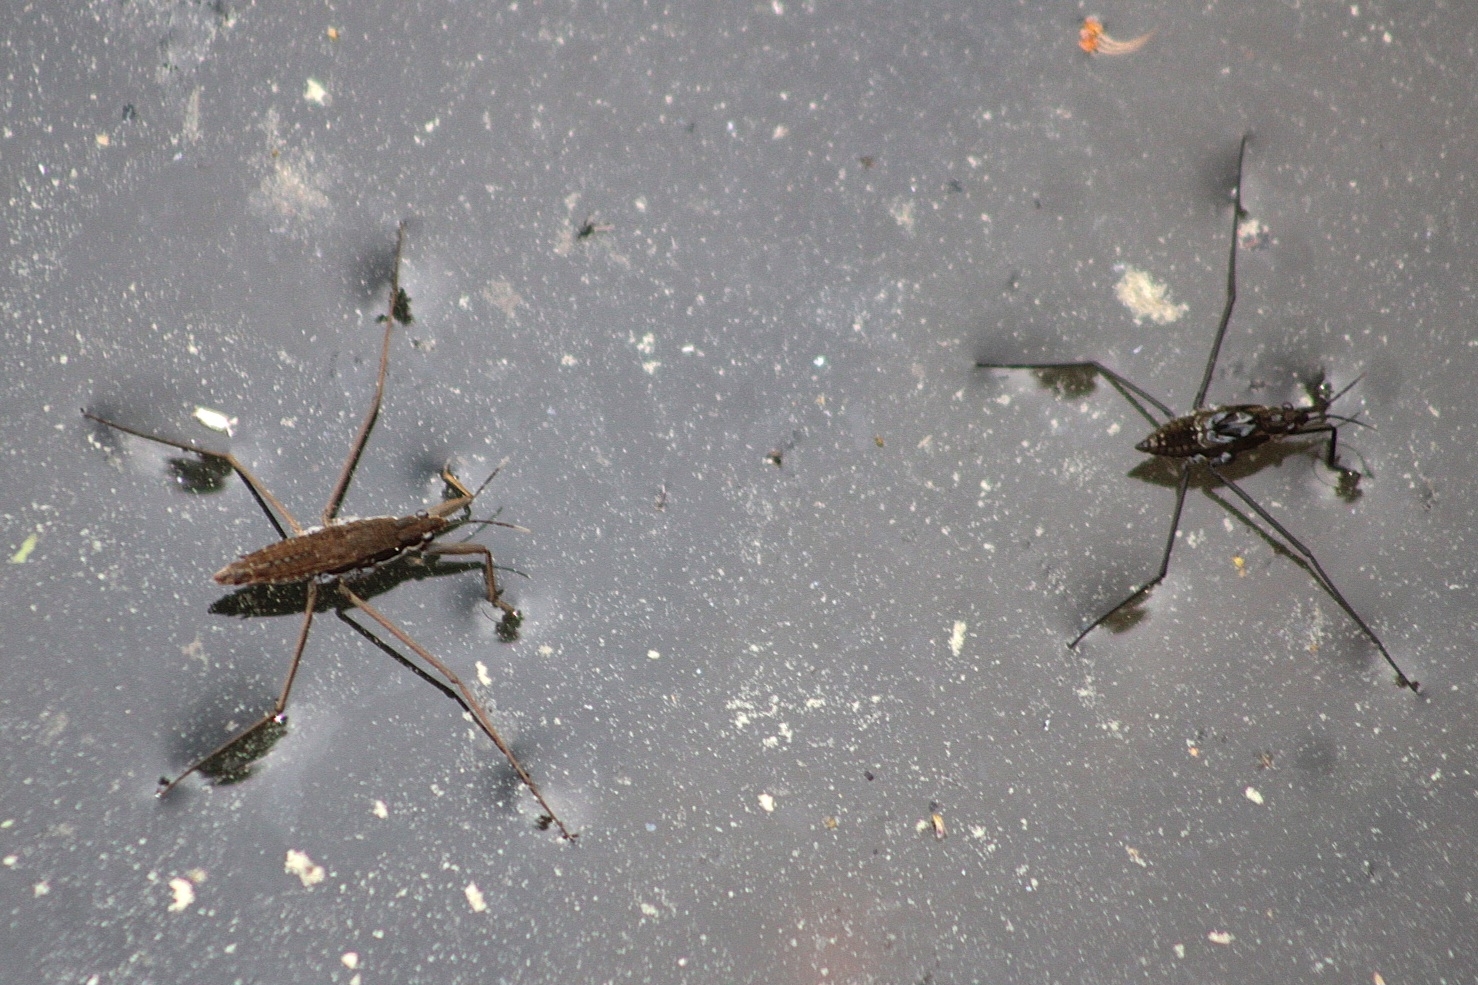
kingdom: Animalia
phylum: Arthropoda
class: Insecta
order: Hemiptera
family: Gerridae
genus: Aquarius
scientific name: Aquarius remigis
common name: Common water strider
